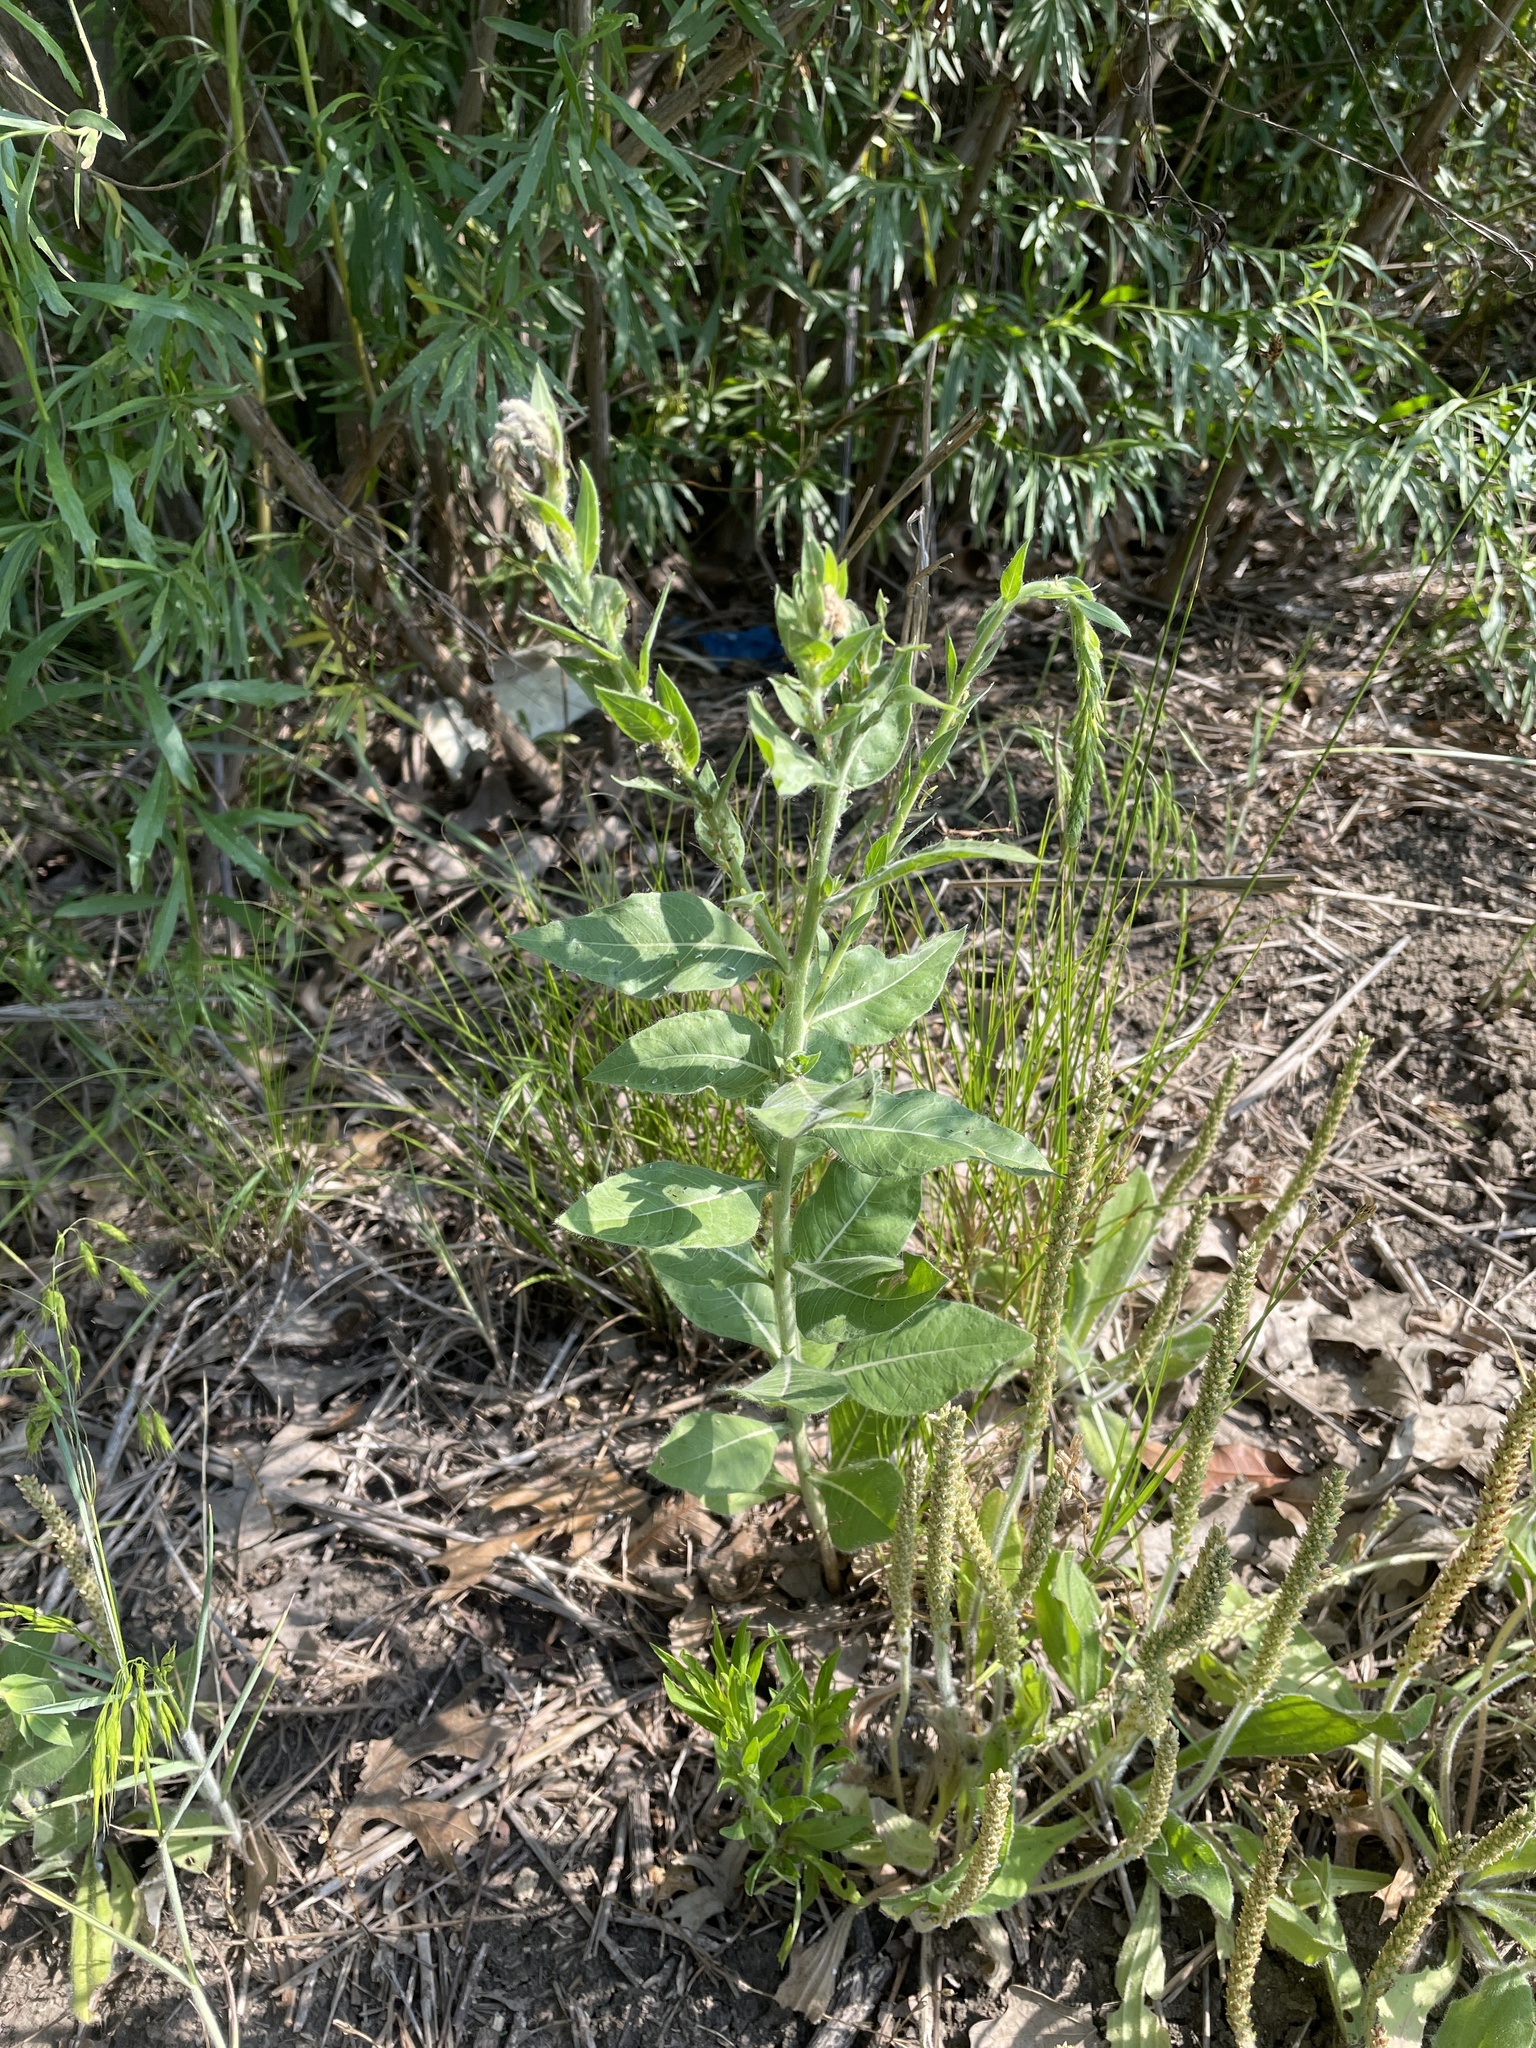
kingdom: Plantae
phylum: Tracheophyta
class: Magnoliopsida
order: Myrtales
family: Onagraceae
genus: Oenothera
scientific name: Oenothera curtiflora
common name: Velvetweed
